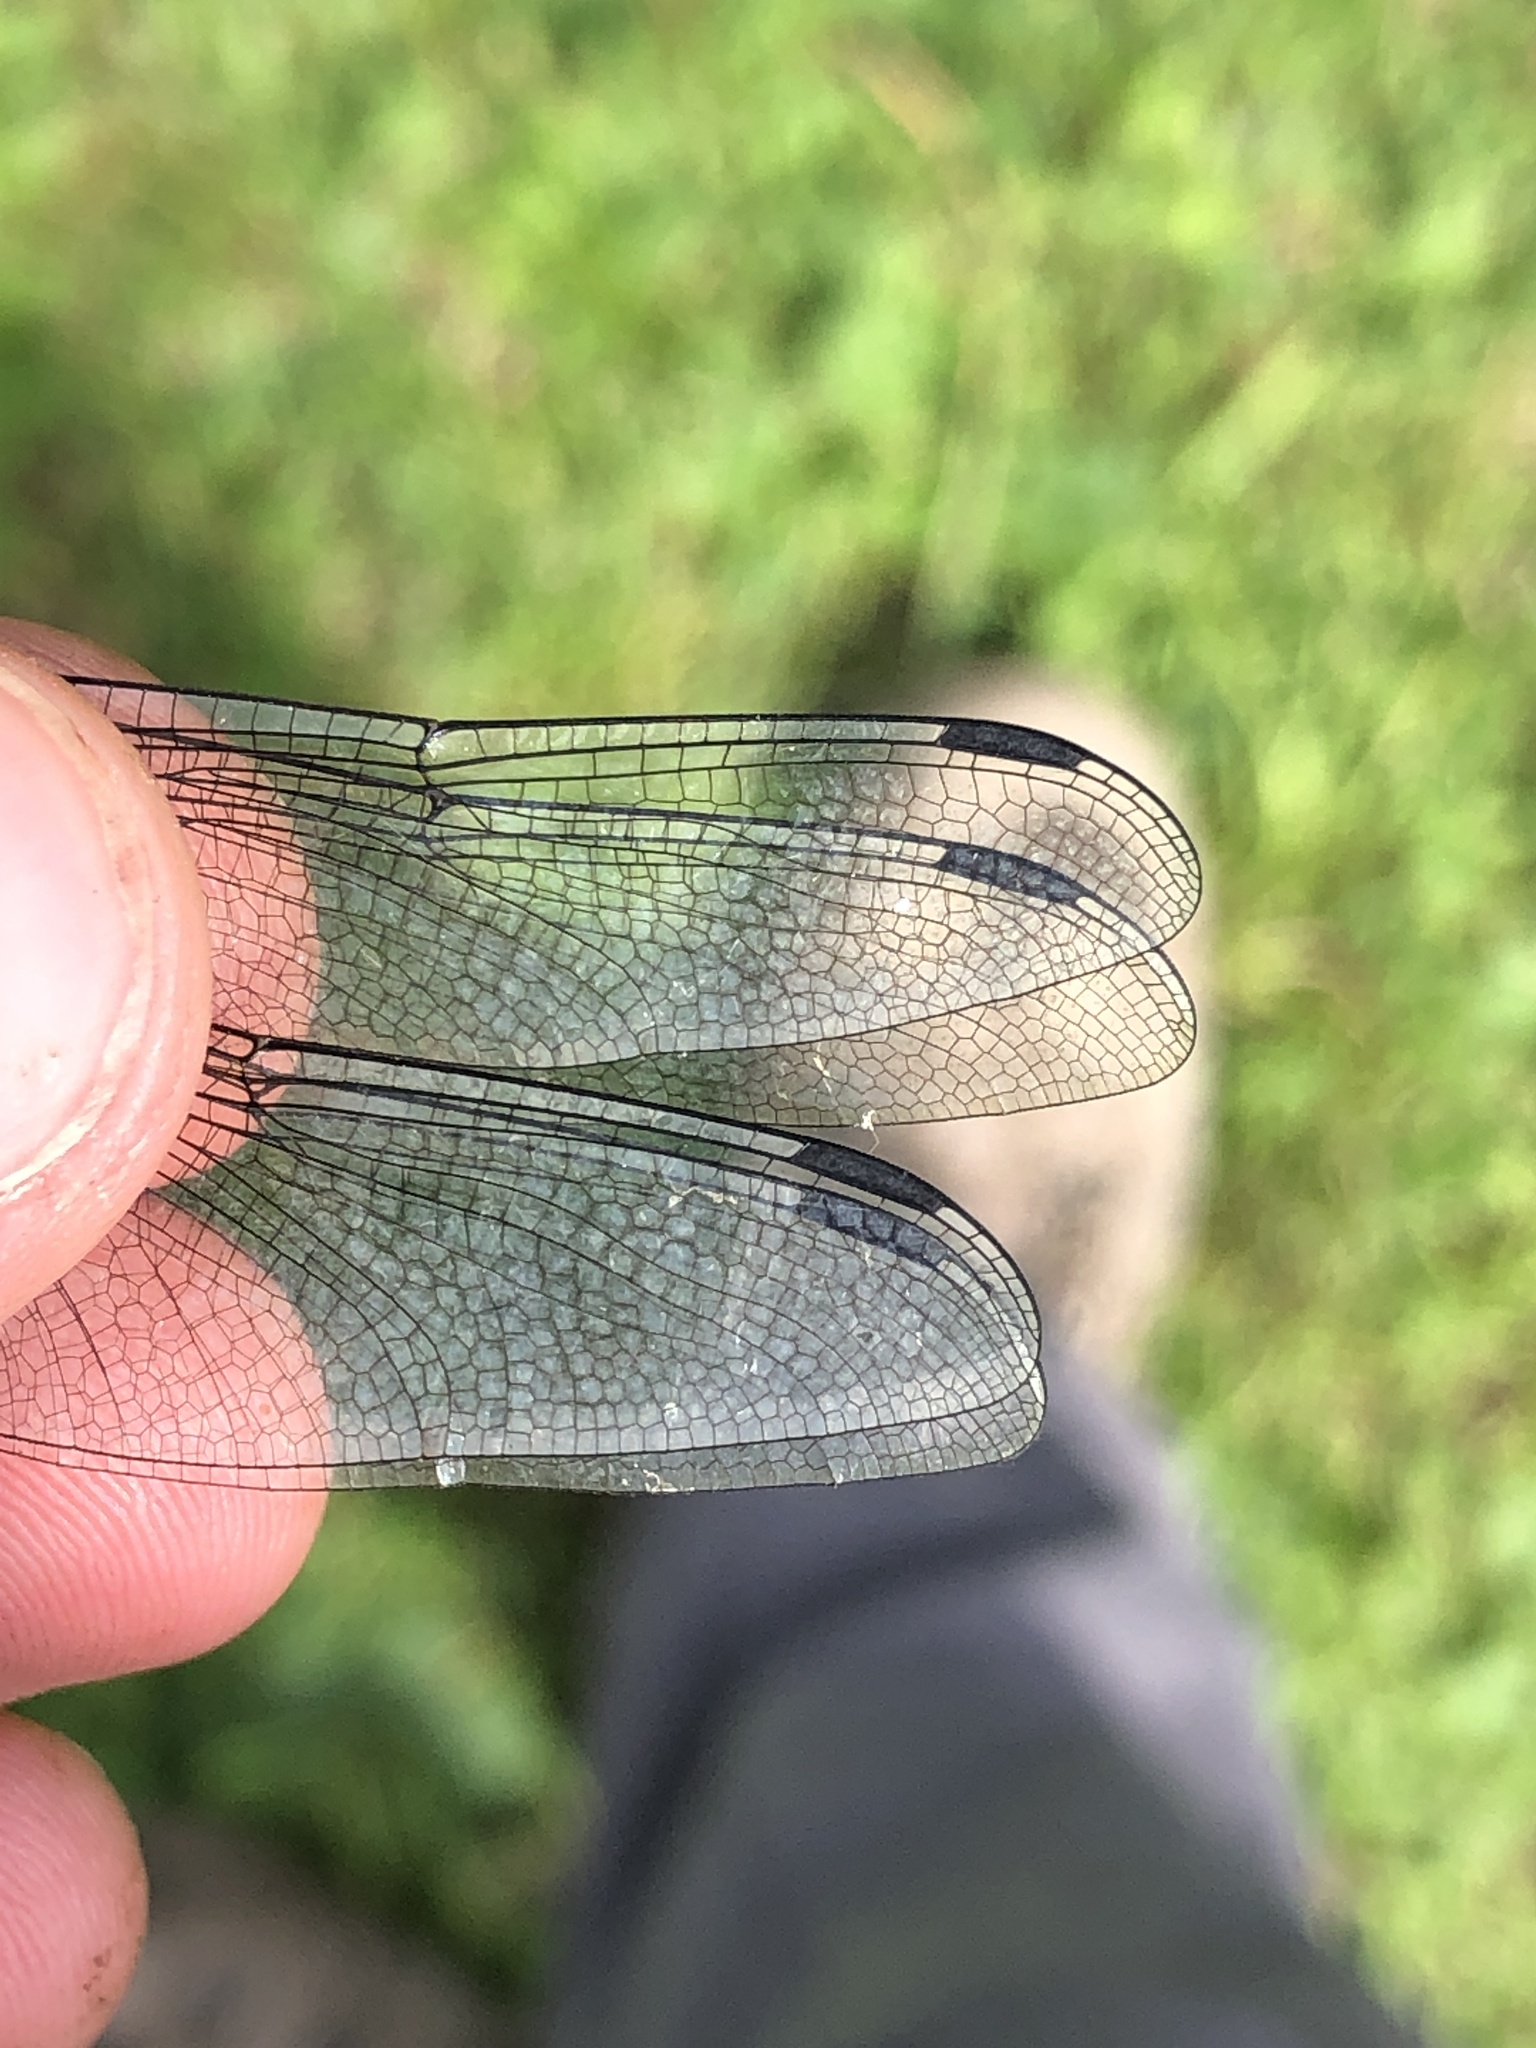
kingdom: Animalia
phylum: Arthropoda
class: Insecta
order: Odonata
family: Libellulidae
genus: Libellula
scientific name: Libellula depressa
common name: Broad-bodied chaser
